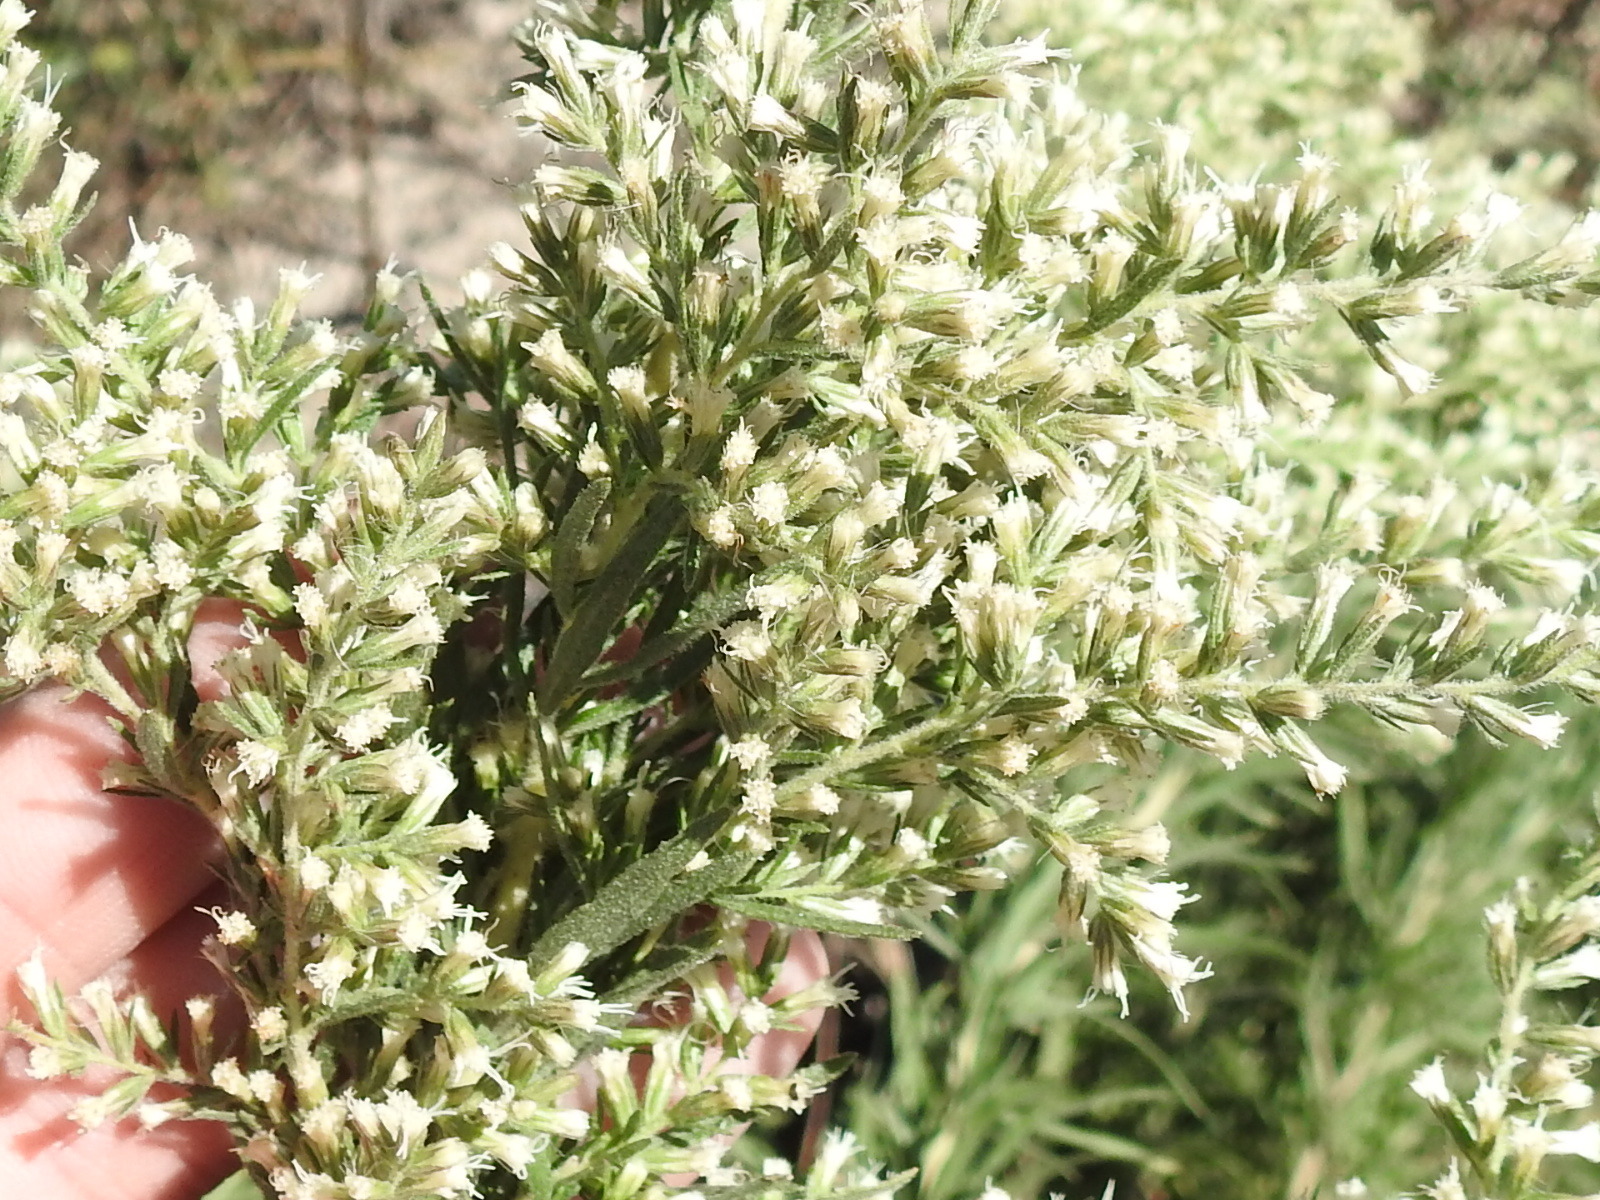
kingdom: Plantae
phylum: Tracheophyta
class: Magnoliopsida
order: Asterales
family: Asteraceae
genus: Eupatorium
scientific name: Eupatorium compositifolium
